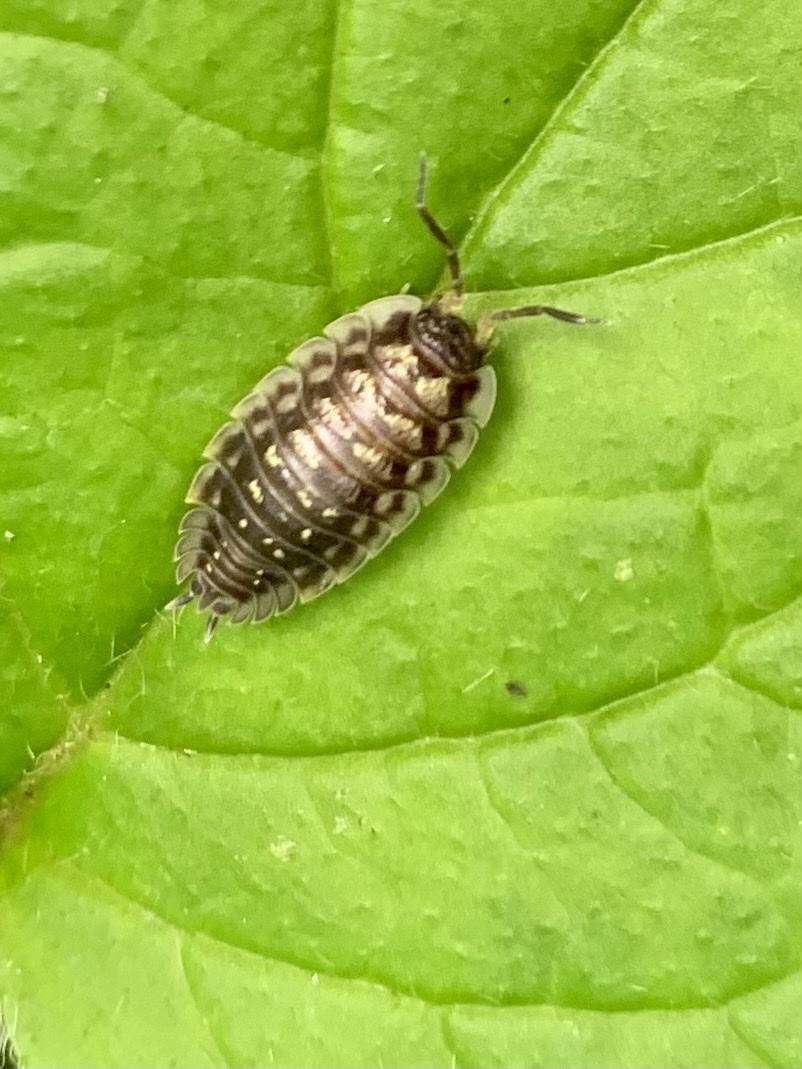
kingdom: Animalia
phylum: Arthropoda
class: Malacostraca
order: Isopoda
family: Oniscidae
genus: Oniscus
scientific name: Oniscus asellus
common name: Common shiny woodlouse
